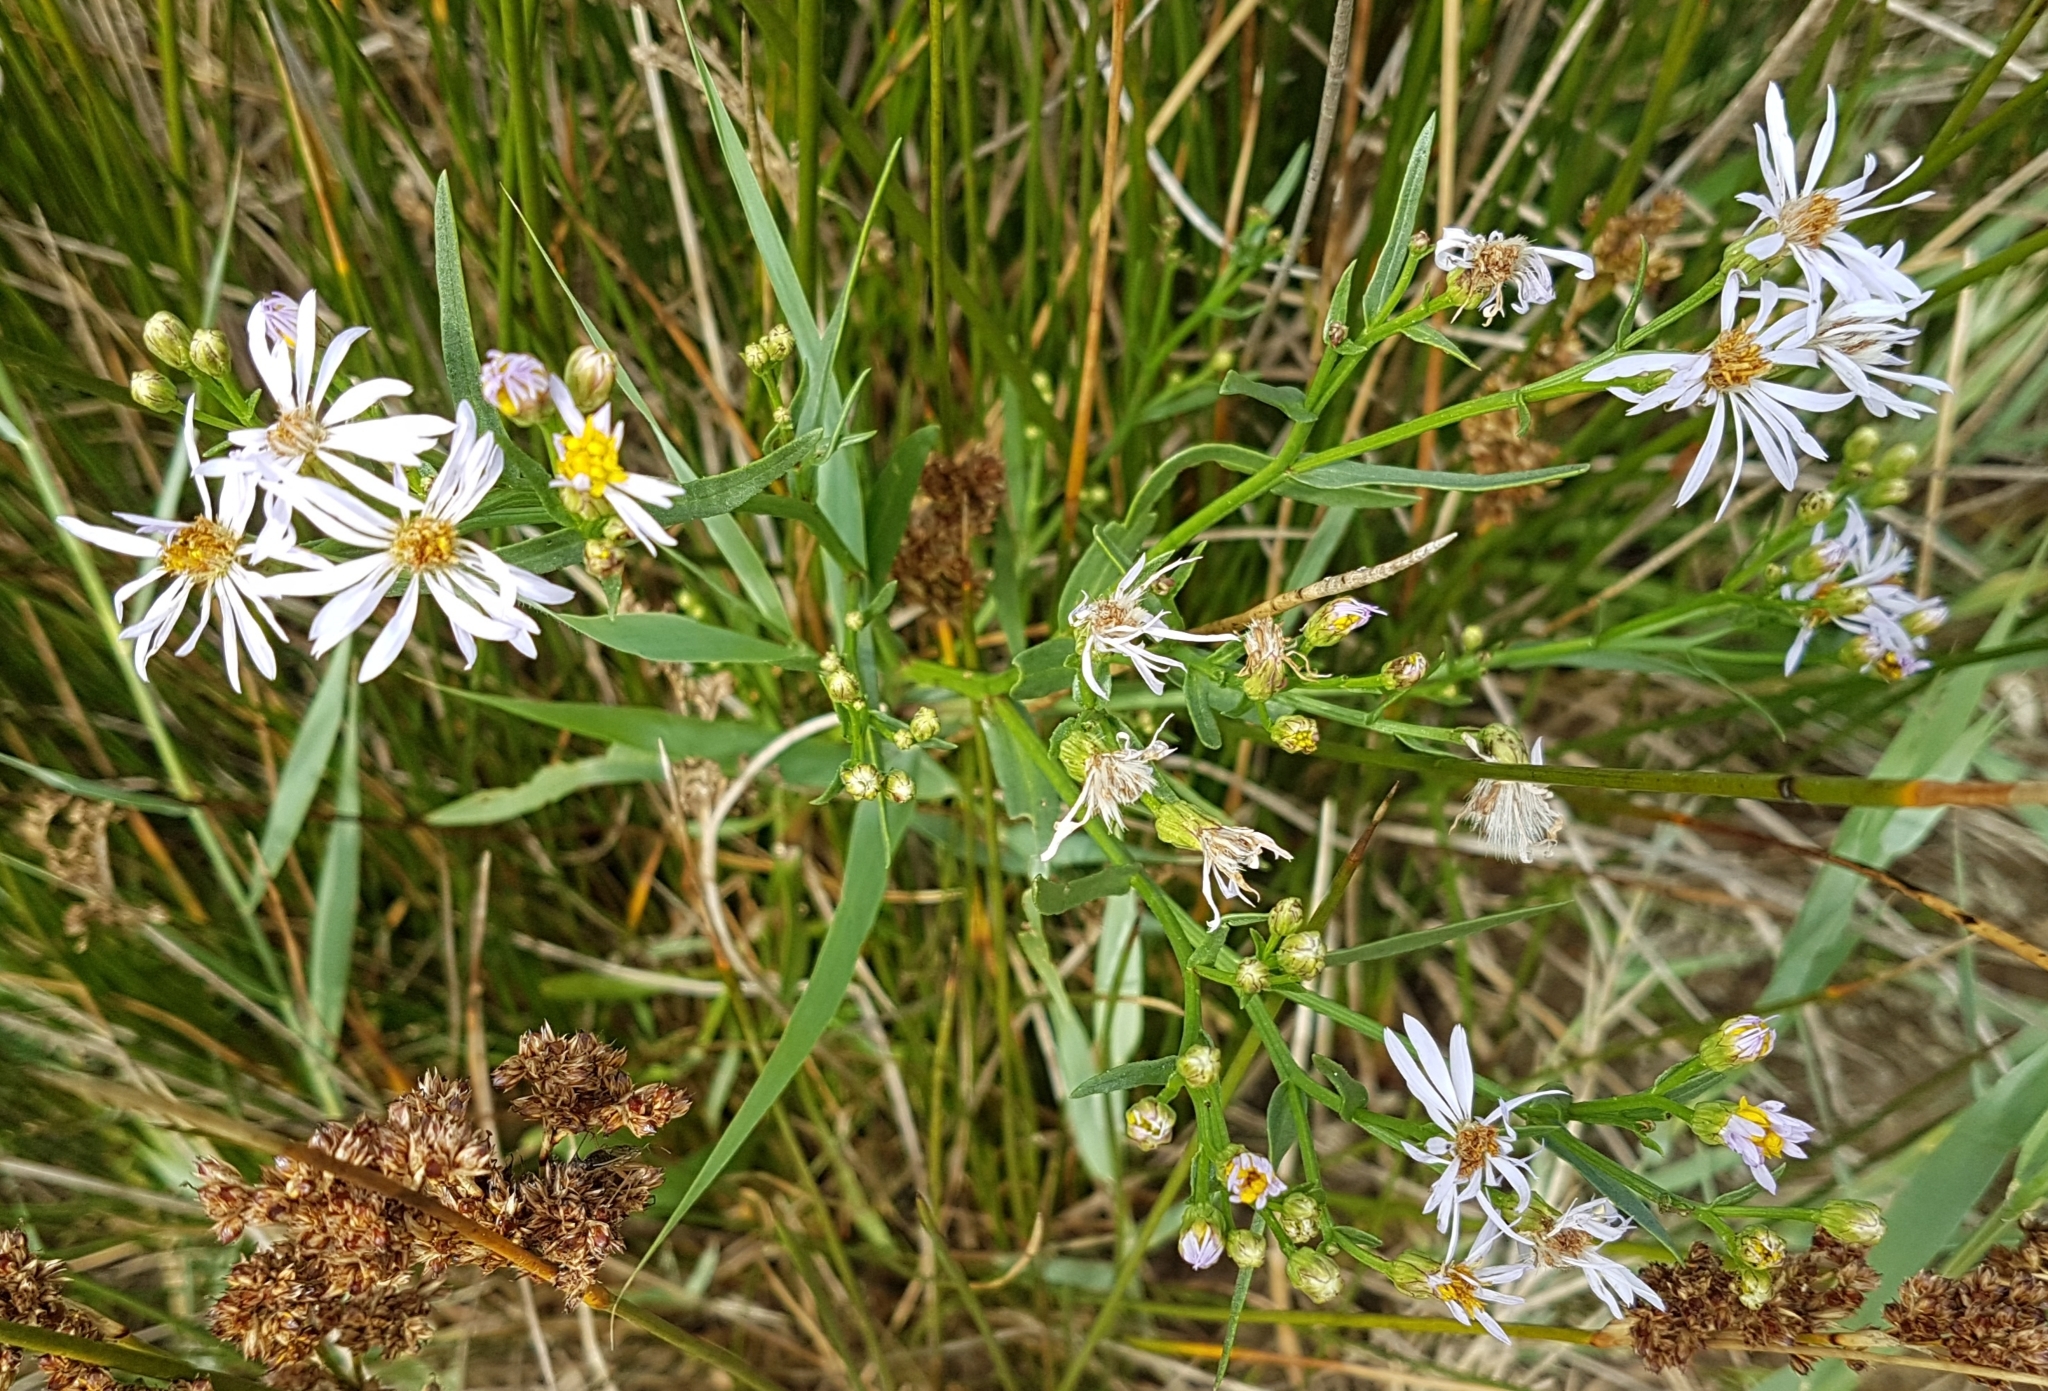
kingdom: Plantae
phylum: Tracheophyta
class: Magnoliopsida
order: Asterales
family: Asteraceae
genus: Tripolium
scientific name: Tripolium pannonicum
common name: Sea aster
